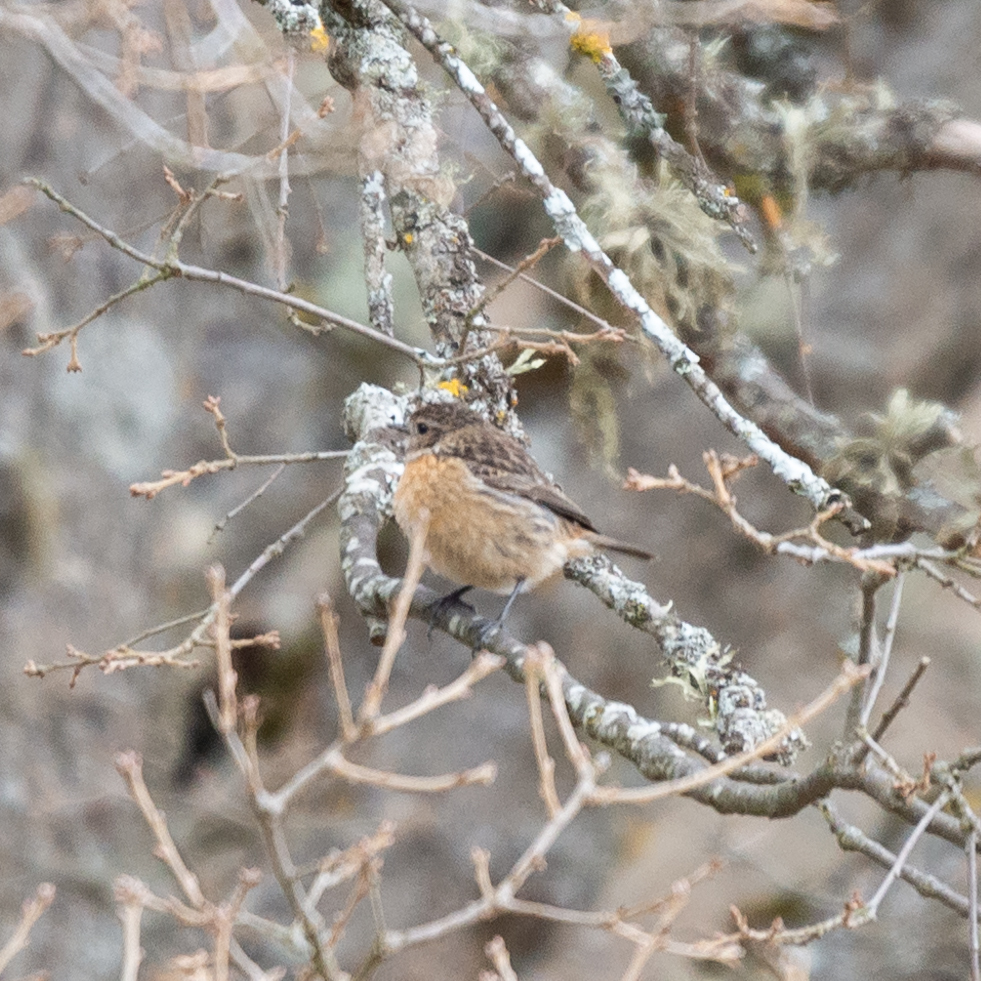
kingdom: Animalia
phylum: Chordata
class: Aves
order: Passeriformes
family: Muscicapidae
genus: Saxicola
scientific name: Saxicola rubicola
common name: European stonechat
